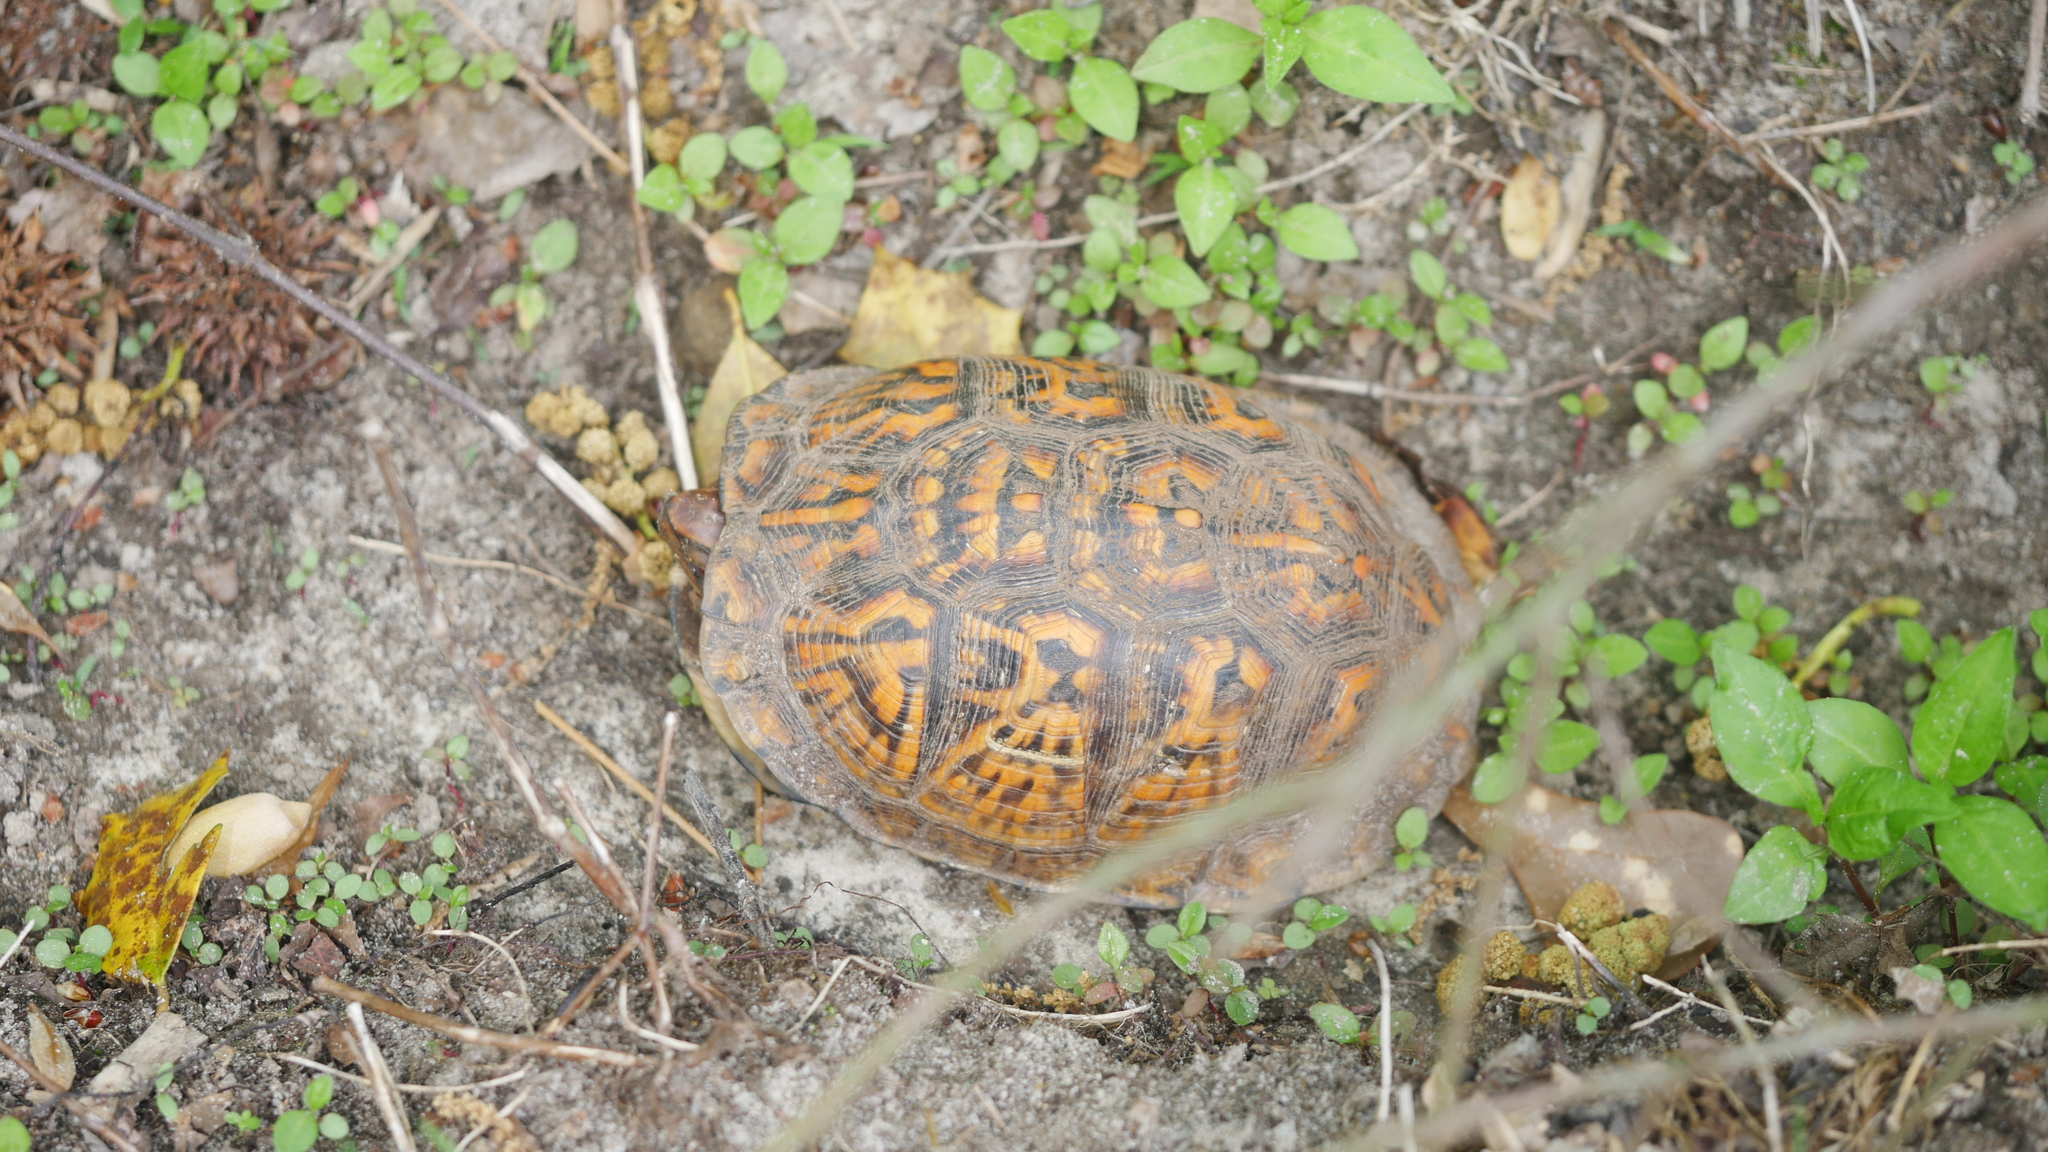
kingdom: Animalia
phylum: Chordata
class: Testudines
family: Emydidae
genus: Terrapene
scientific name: Terrapene carolina
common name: Common box turtle
